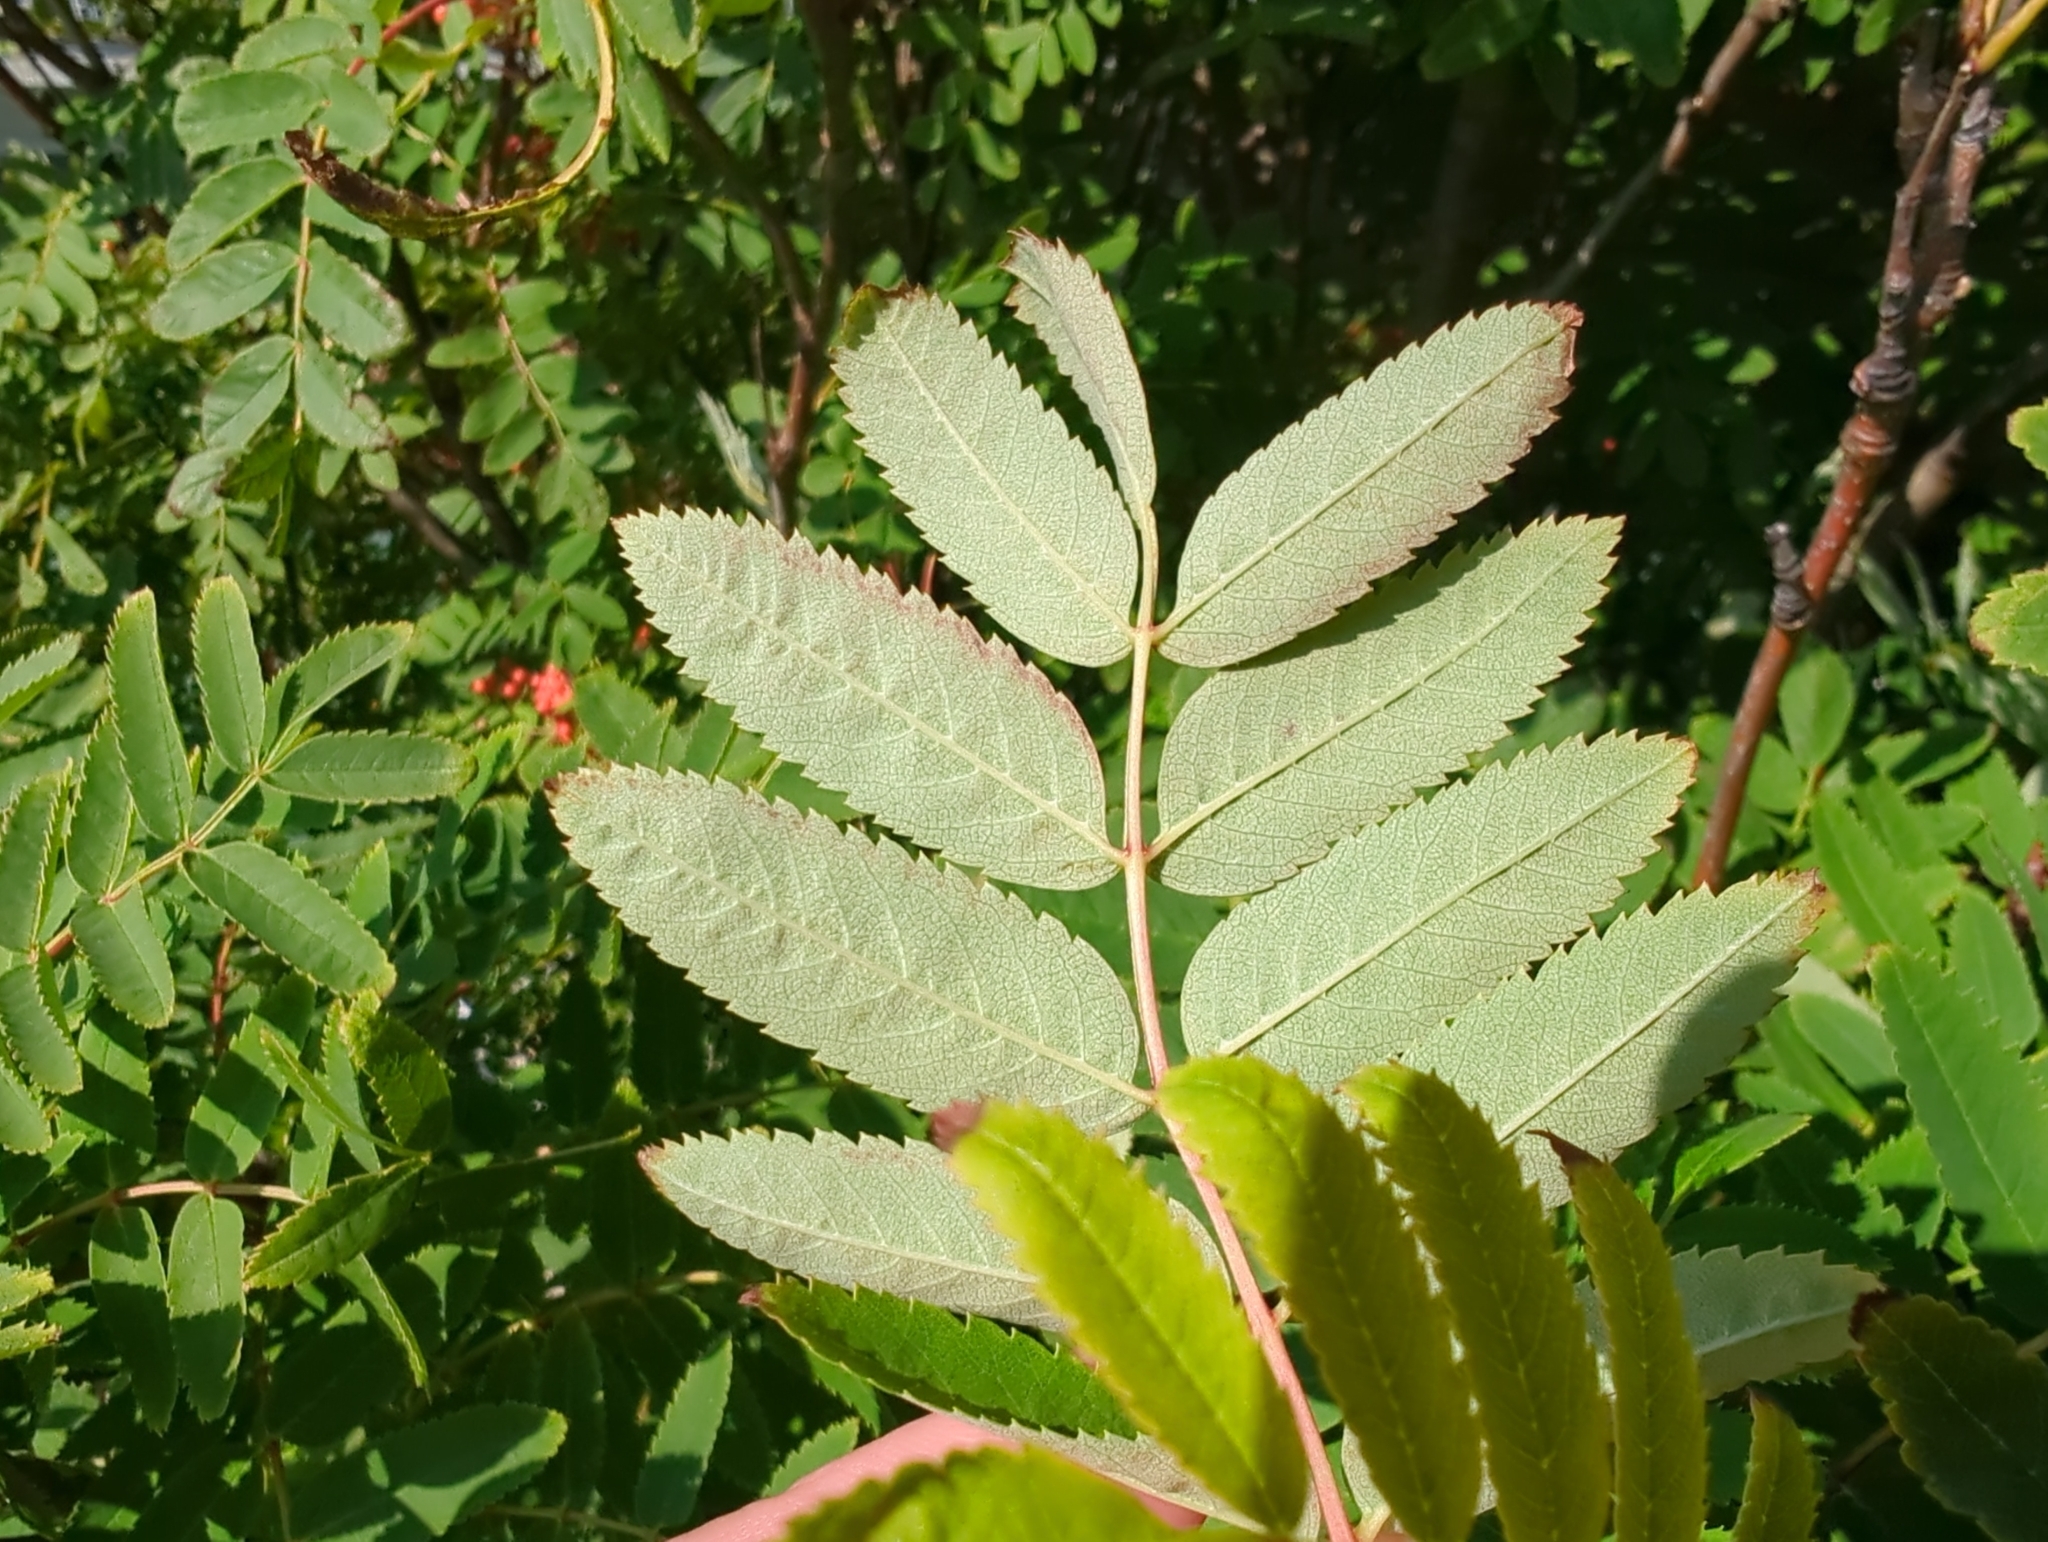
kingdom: Plantae
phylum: Tracheophyta
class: Magnoliopsida
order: Rosales
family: Rosaceae
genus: Sorbus
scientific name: Sorbus aucuparia
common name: Rowan
